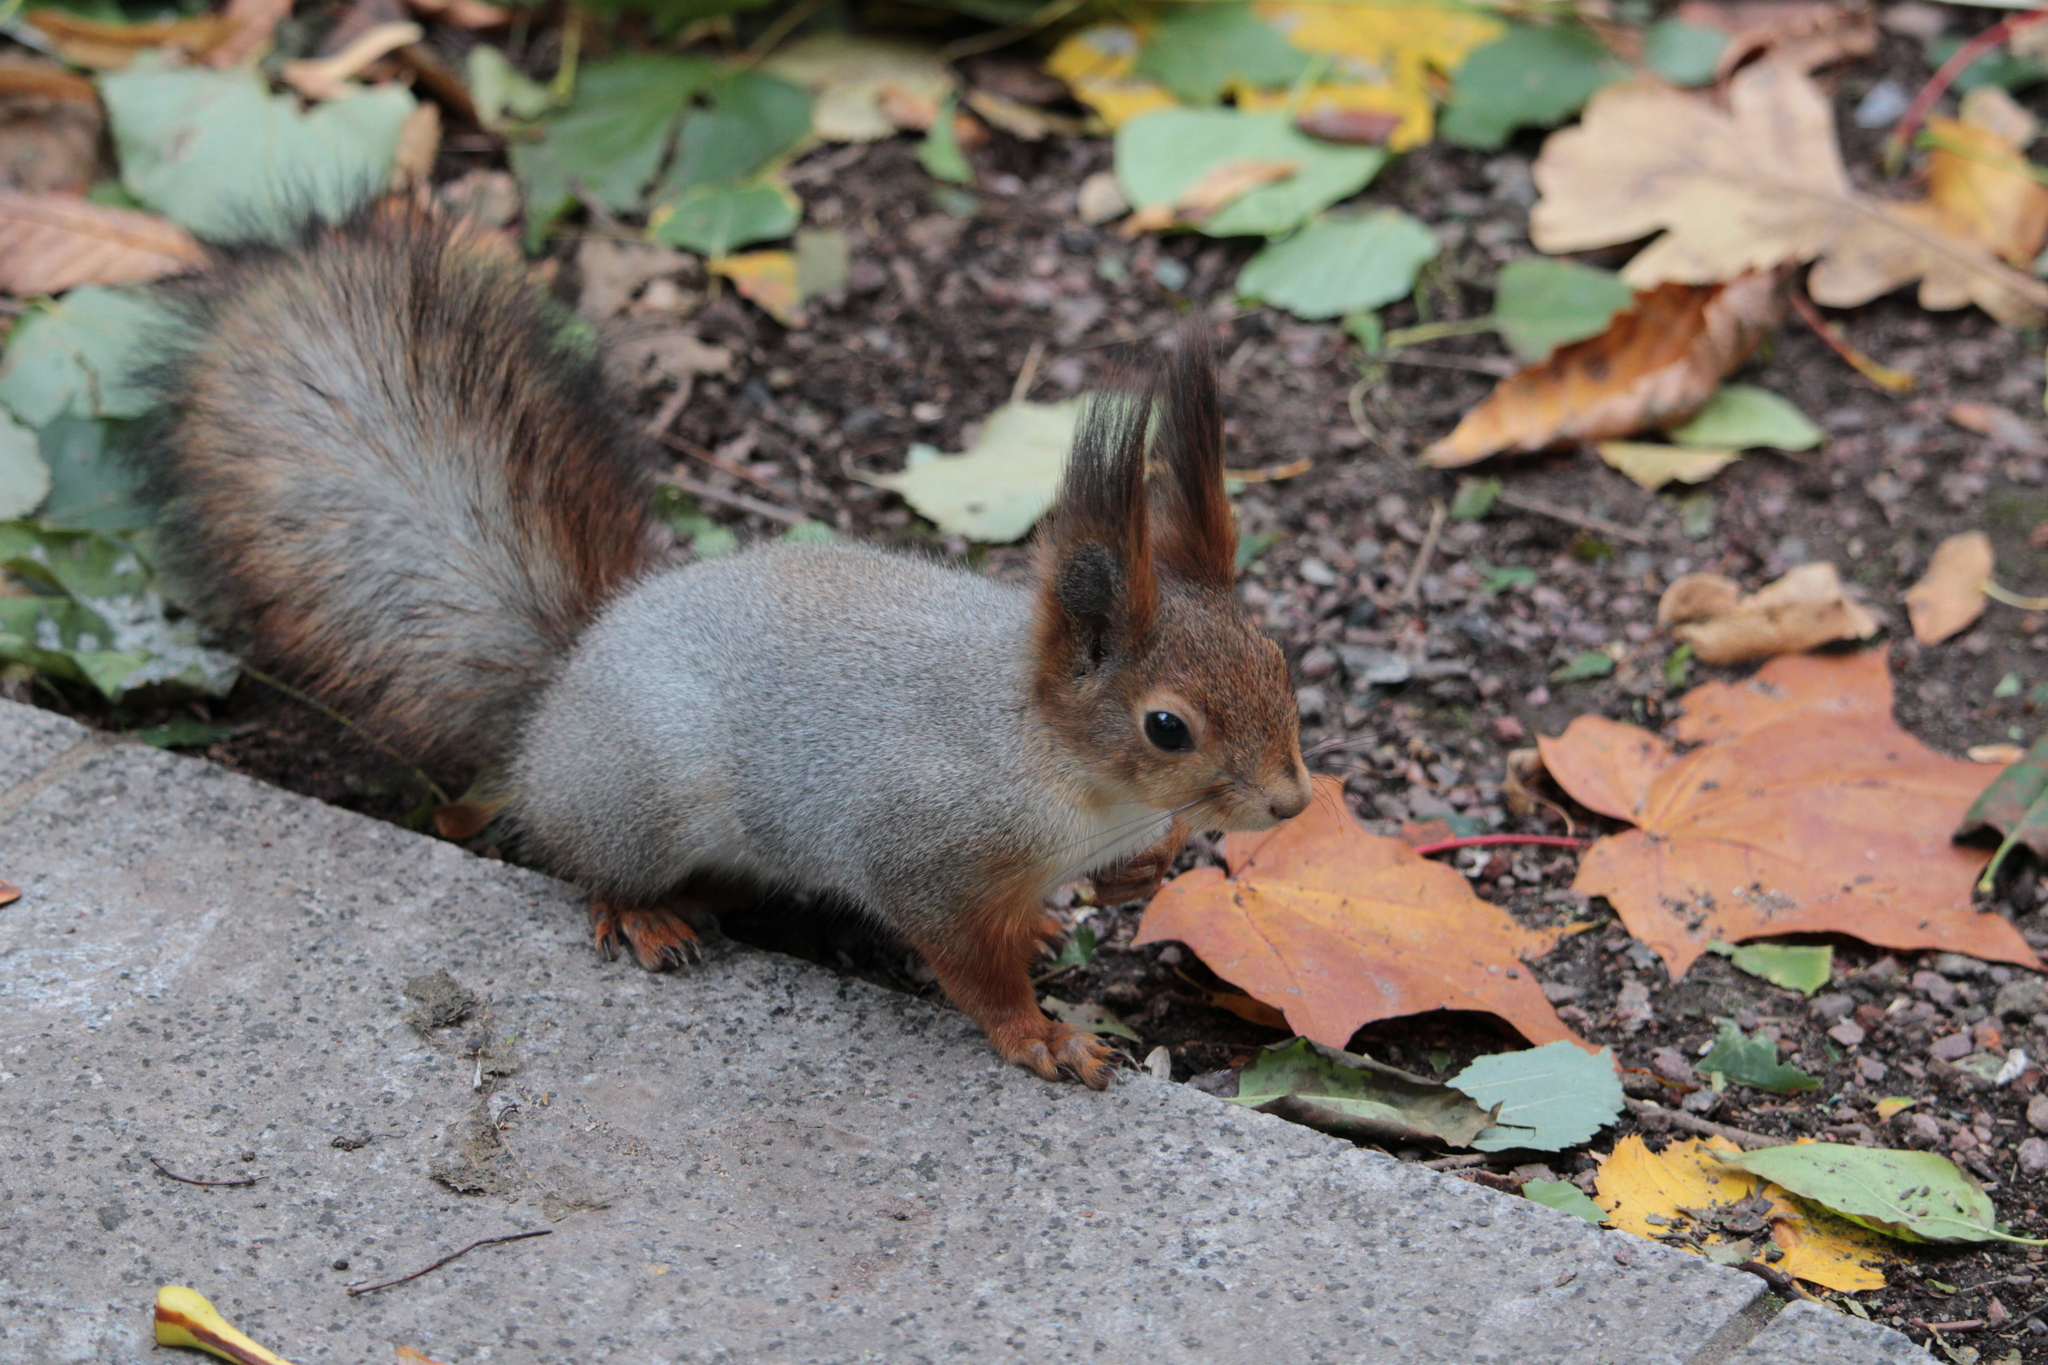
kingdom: Animalia
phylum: Chordata
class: Mammalia
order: Rodentia
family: Sciuridae
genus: Sciurus
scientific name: Sciurus vulgaris
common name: Eurasian red squirrel
